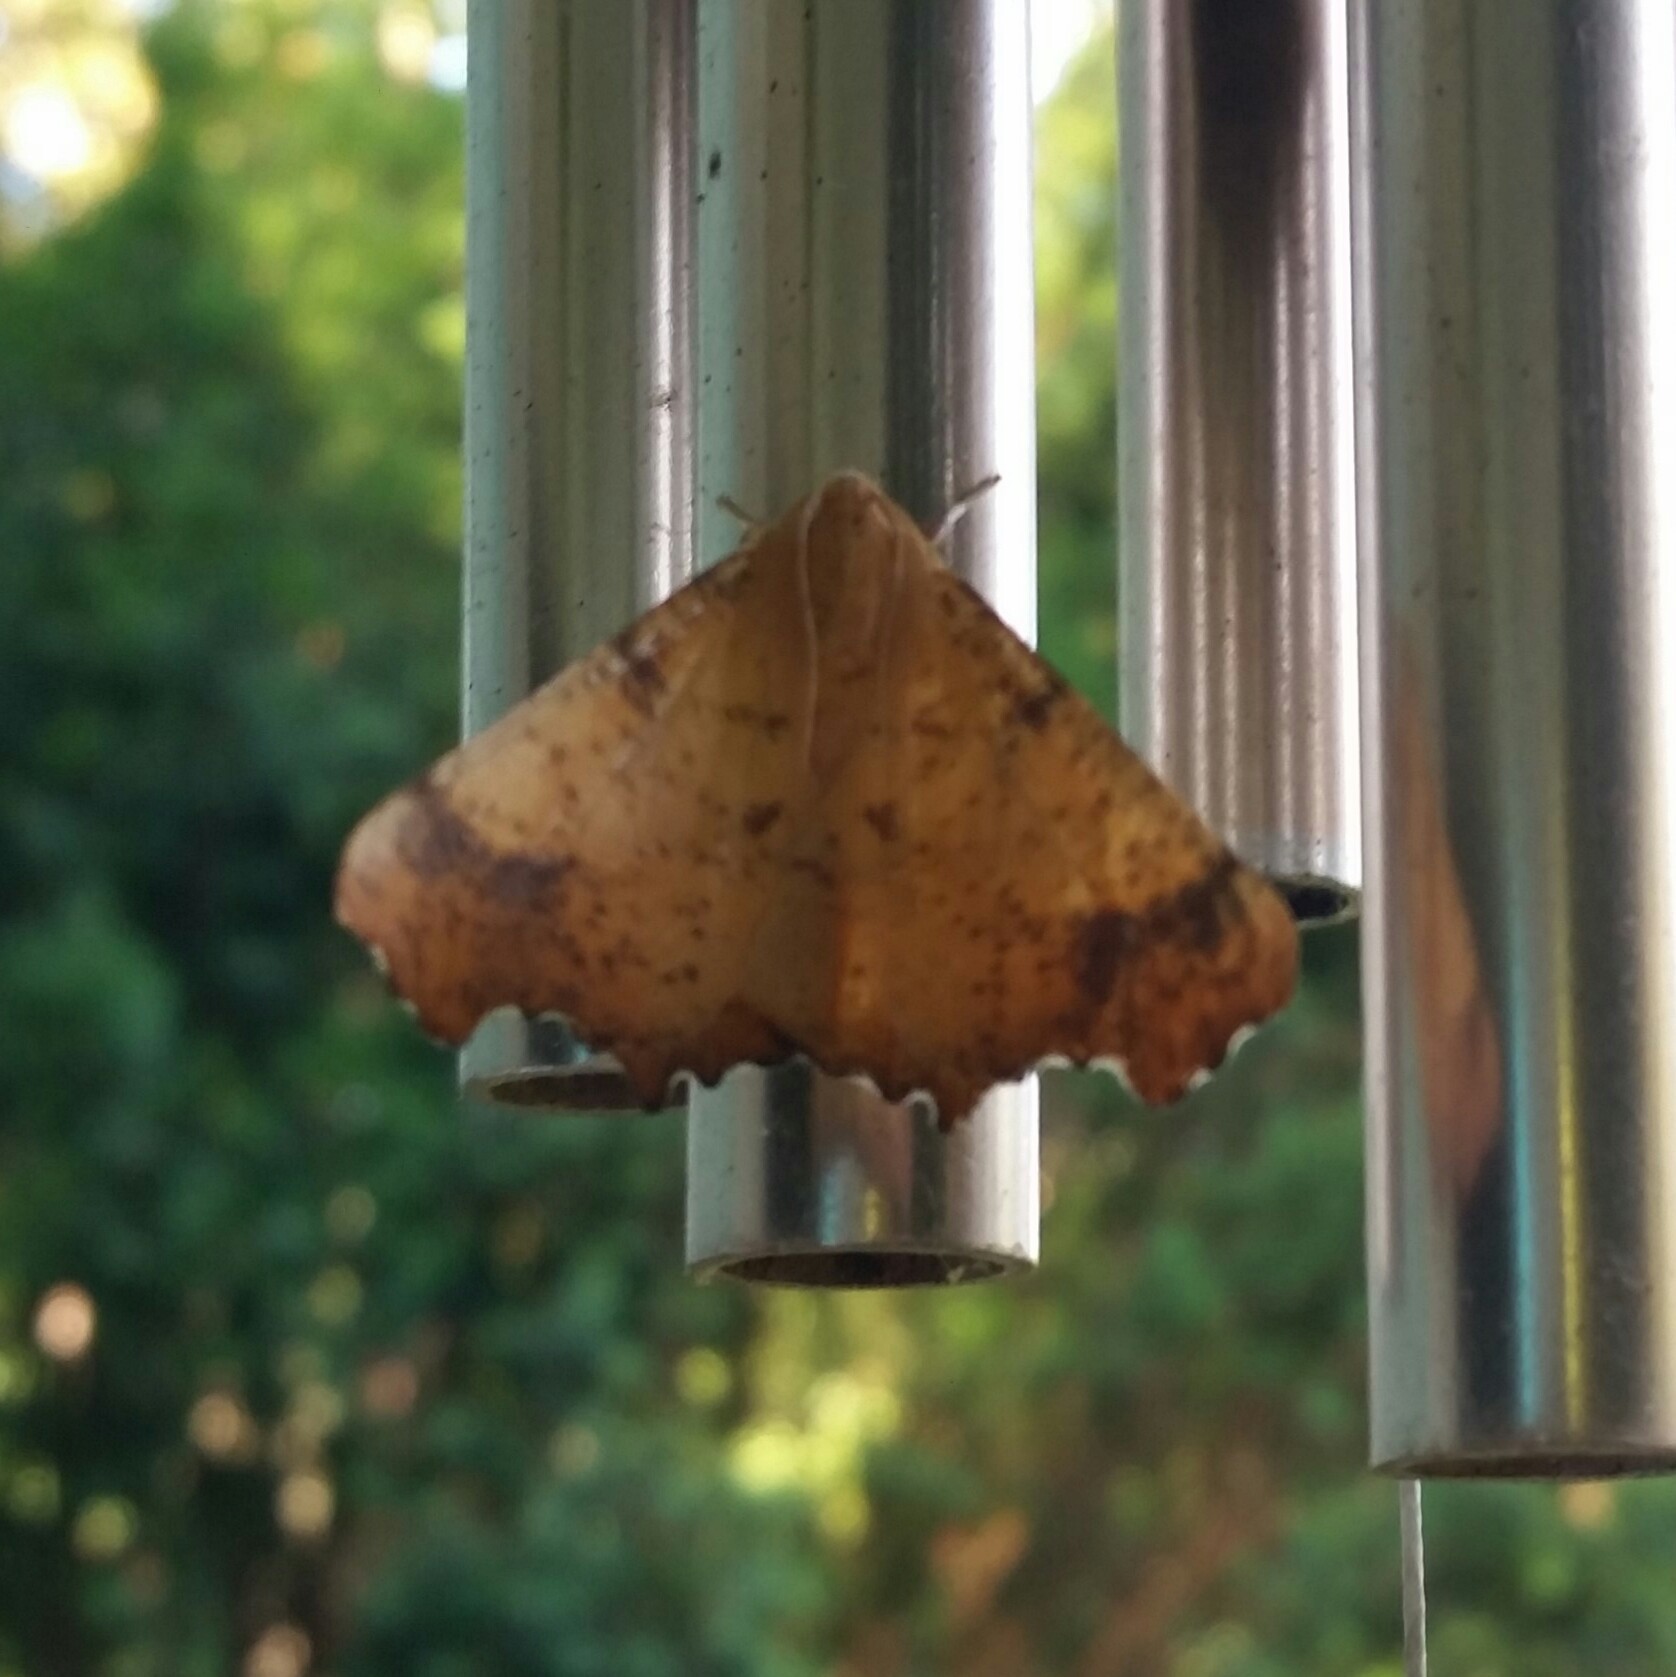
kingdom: Animalia
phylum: Arthropoda
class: Insecta
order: Lepidoptera
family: Geometridae
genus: Ennomos
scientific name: Ennomos magnaria
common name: Maple spanworm
